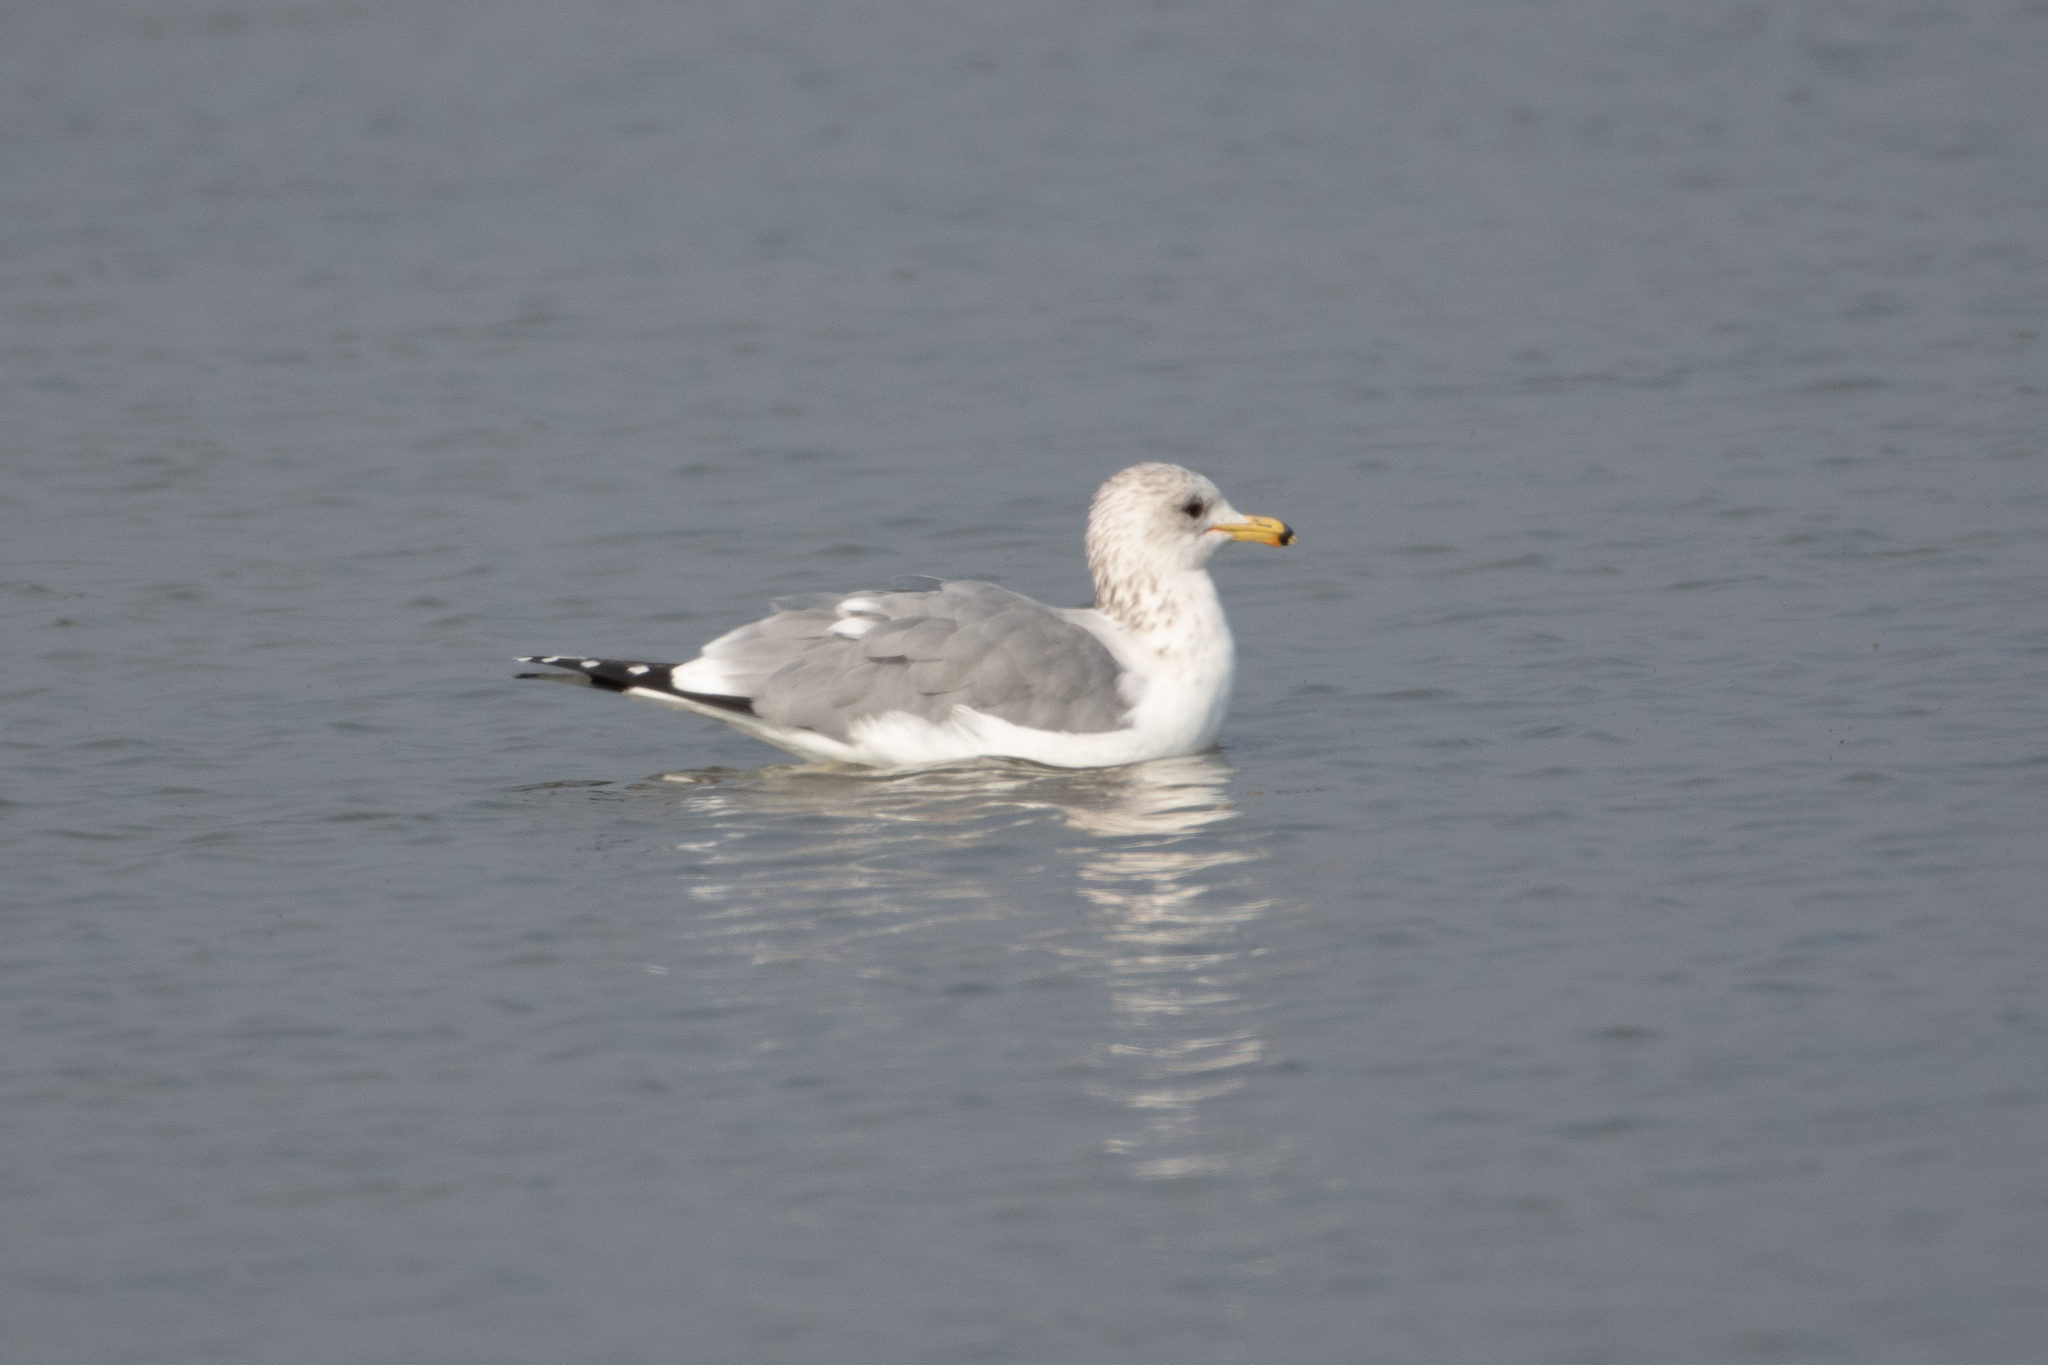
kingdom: Animalia
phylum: Chordata
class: Aves
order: Charadriiformes
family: Laridae
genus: Larus
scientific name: Larus californicus
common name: California gull
